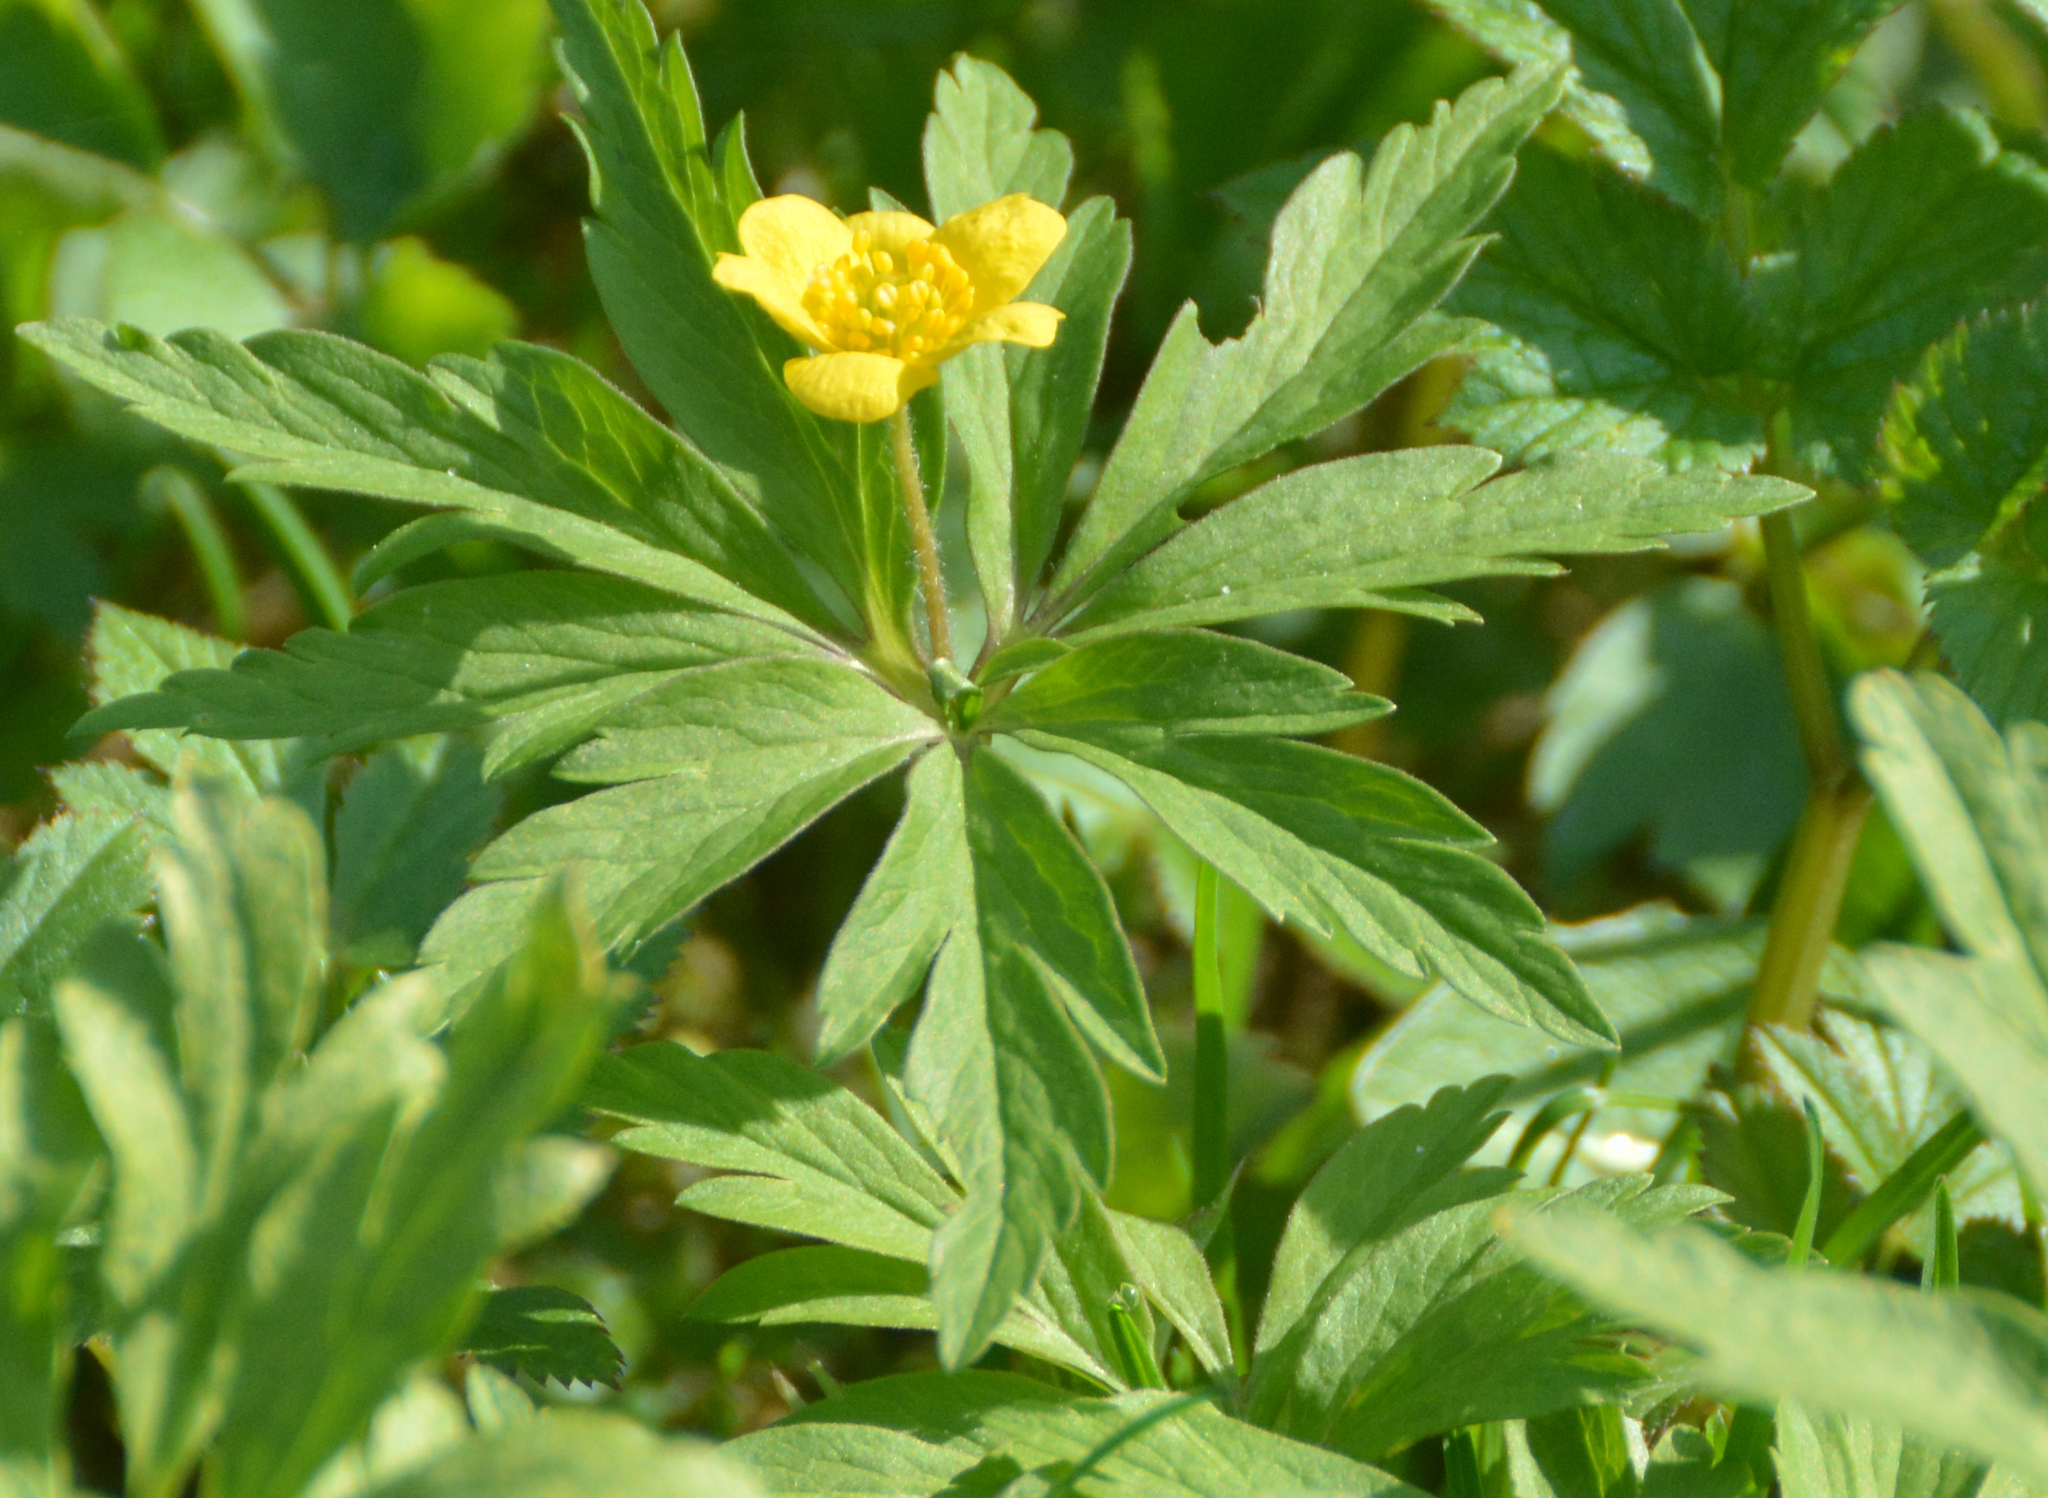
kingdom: Plantae
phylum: Tracheophyta
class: Magnoliopsida
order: Ranunculales
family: Ranunculaceae
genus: Anemone
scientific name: Anemone ranunculoides
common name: Yellow anemone
